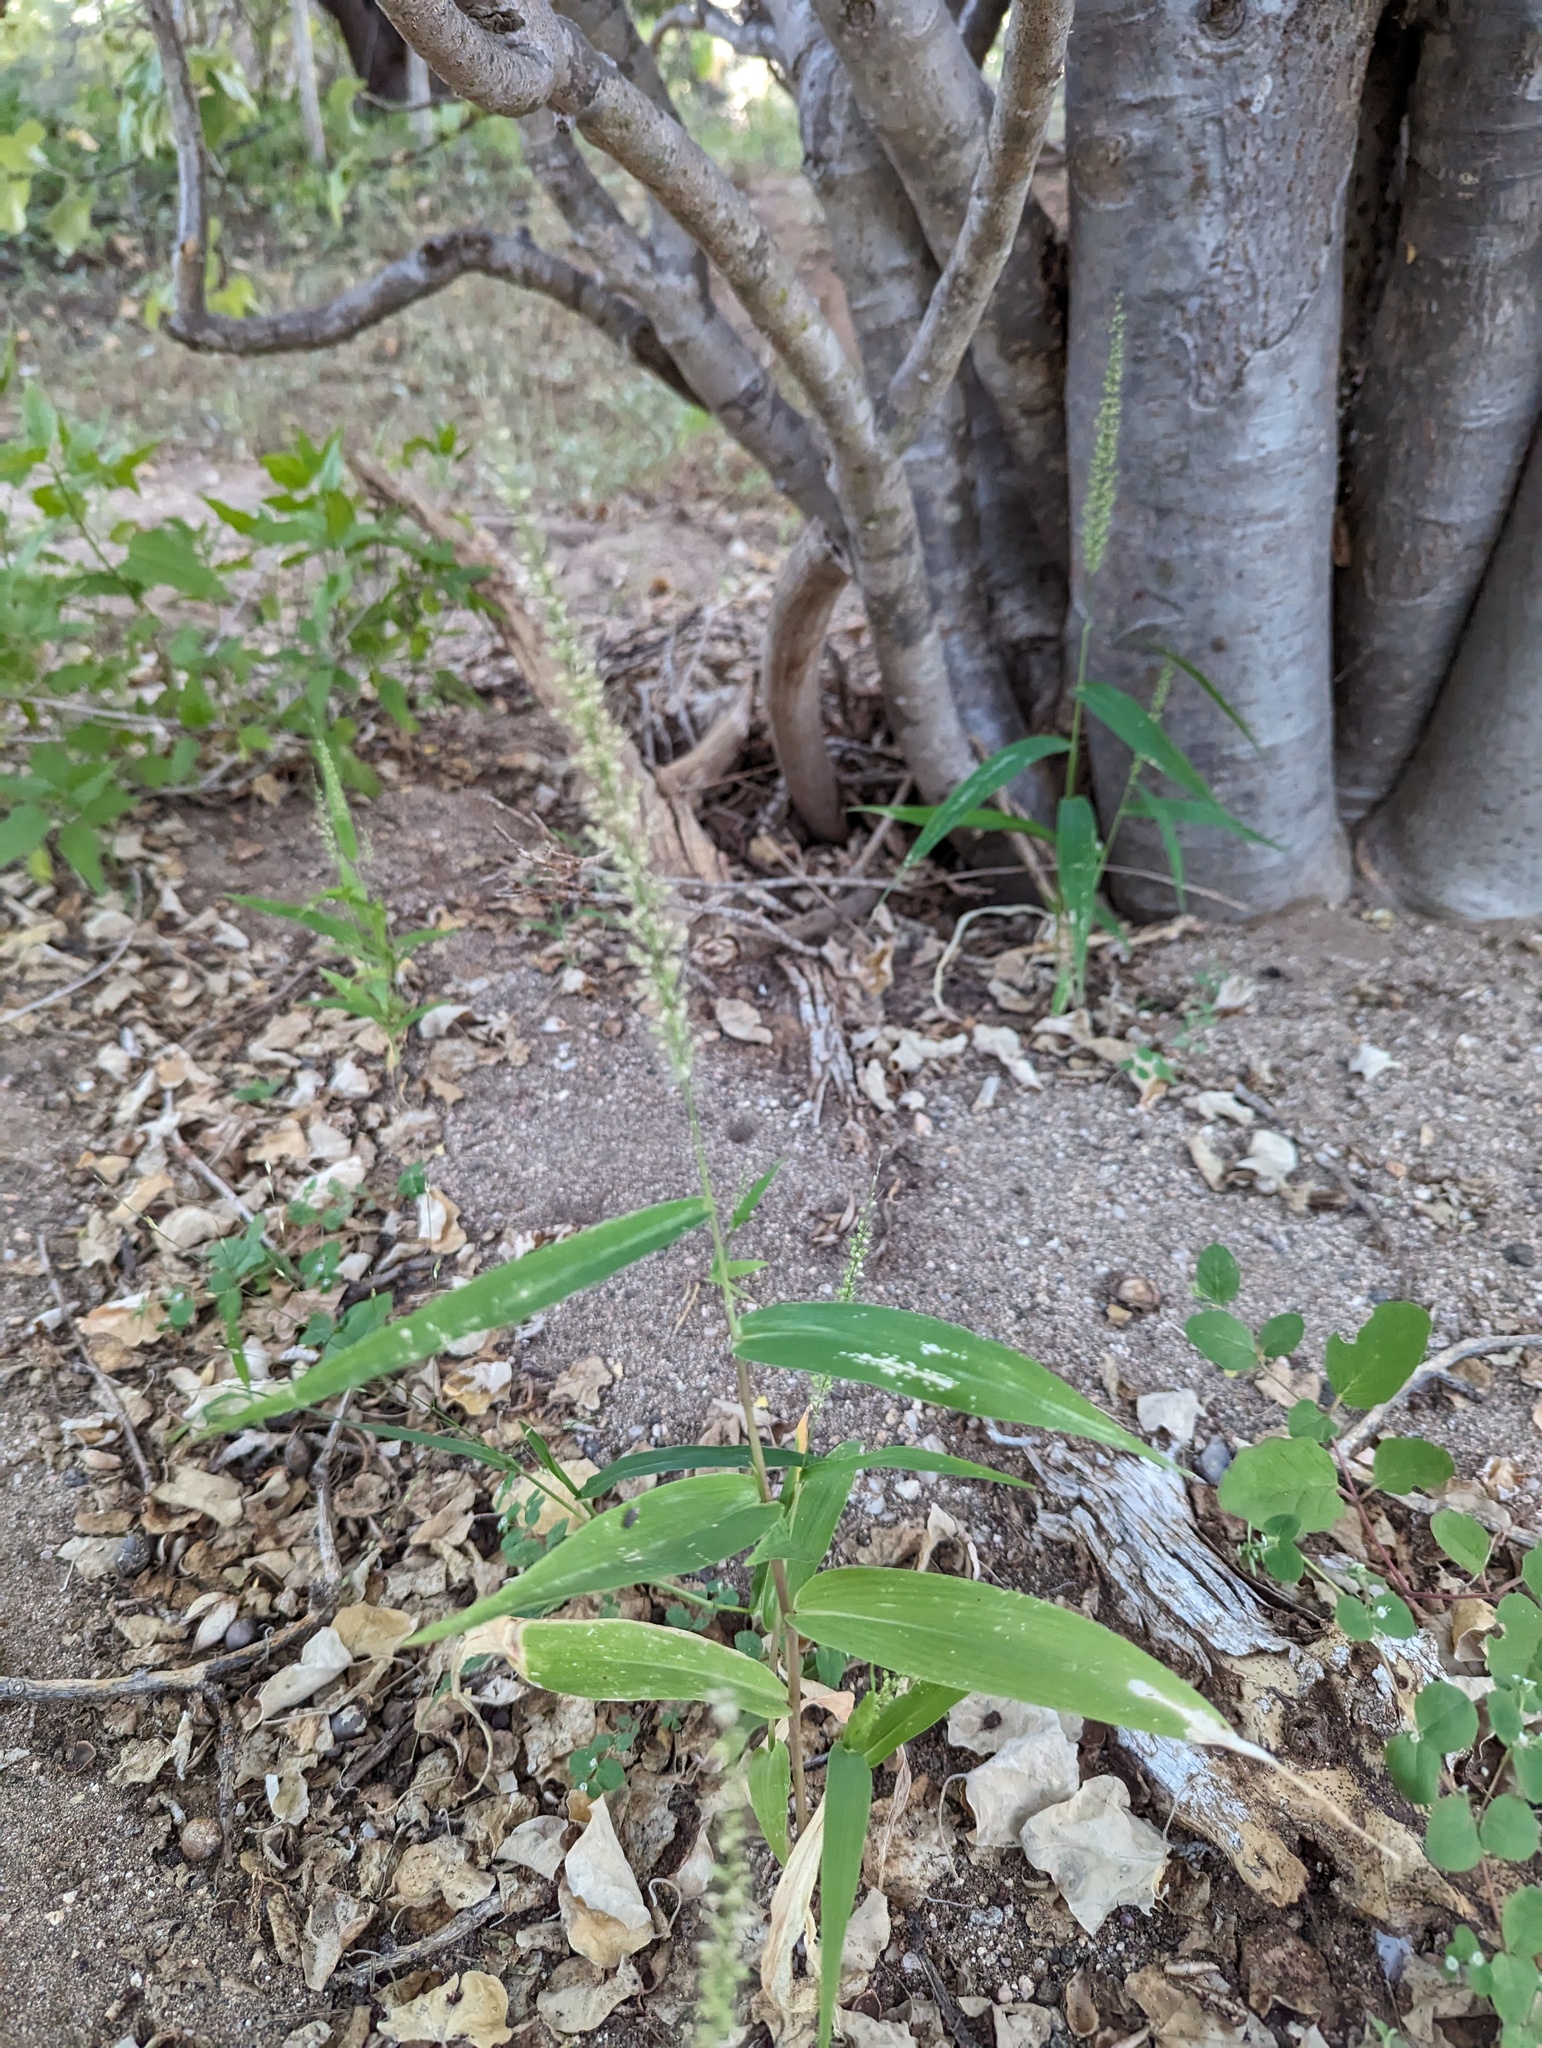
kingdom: Plantae
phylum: Tracheophyta
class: Liliopsida
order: Poales
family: Poaceae
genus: Setaria
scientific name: Setaria liebmannii
